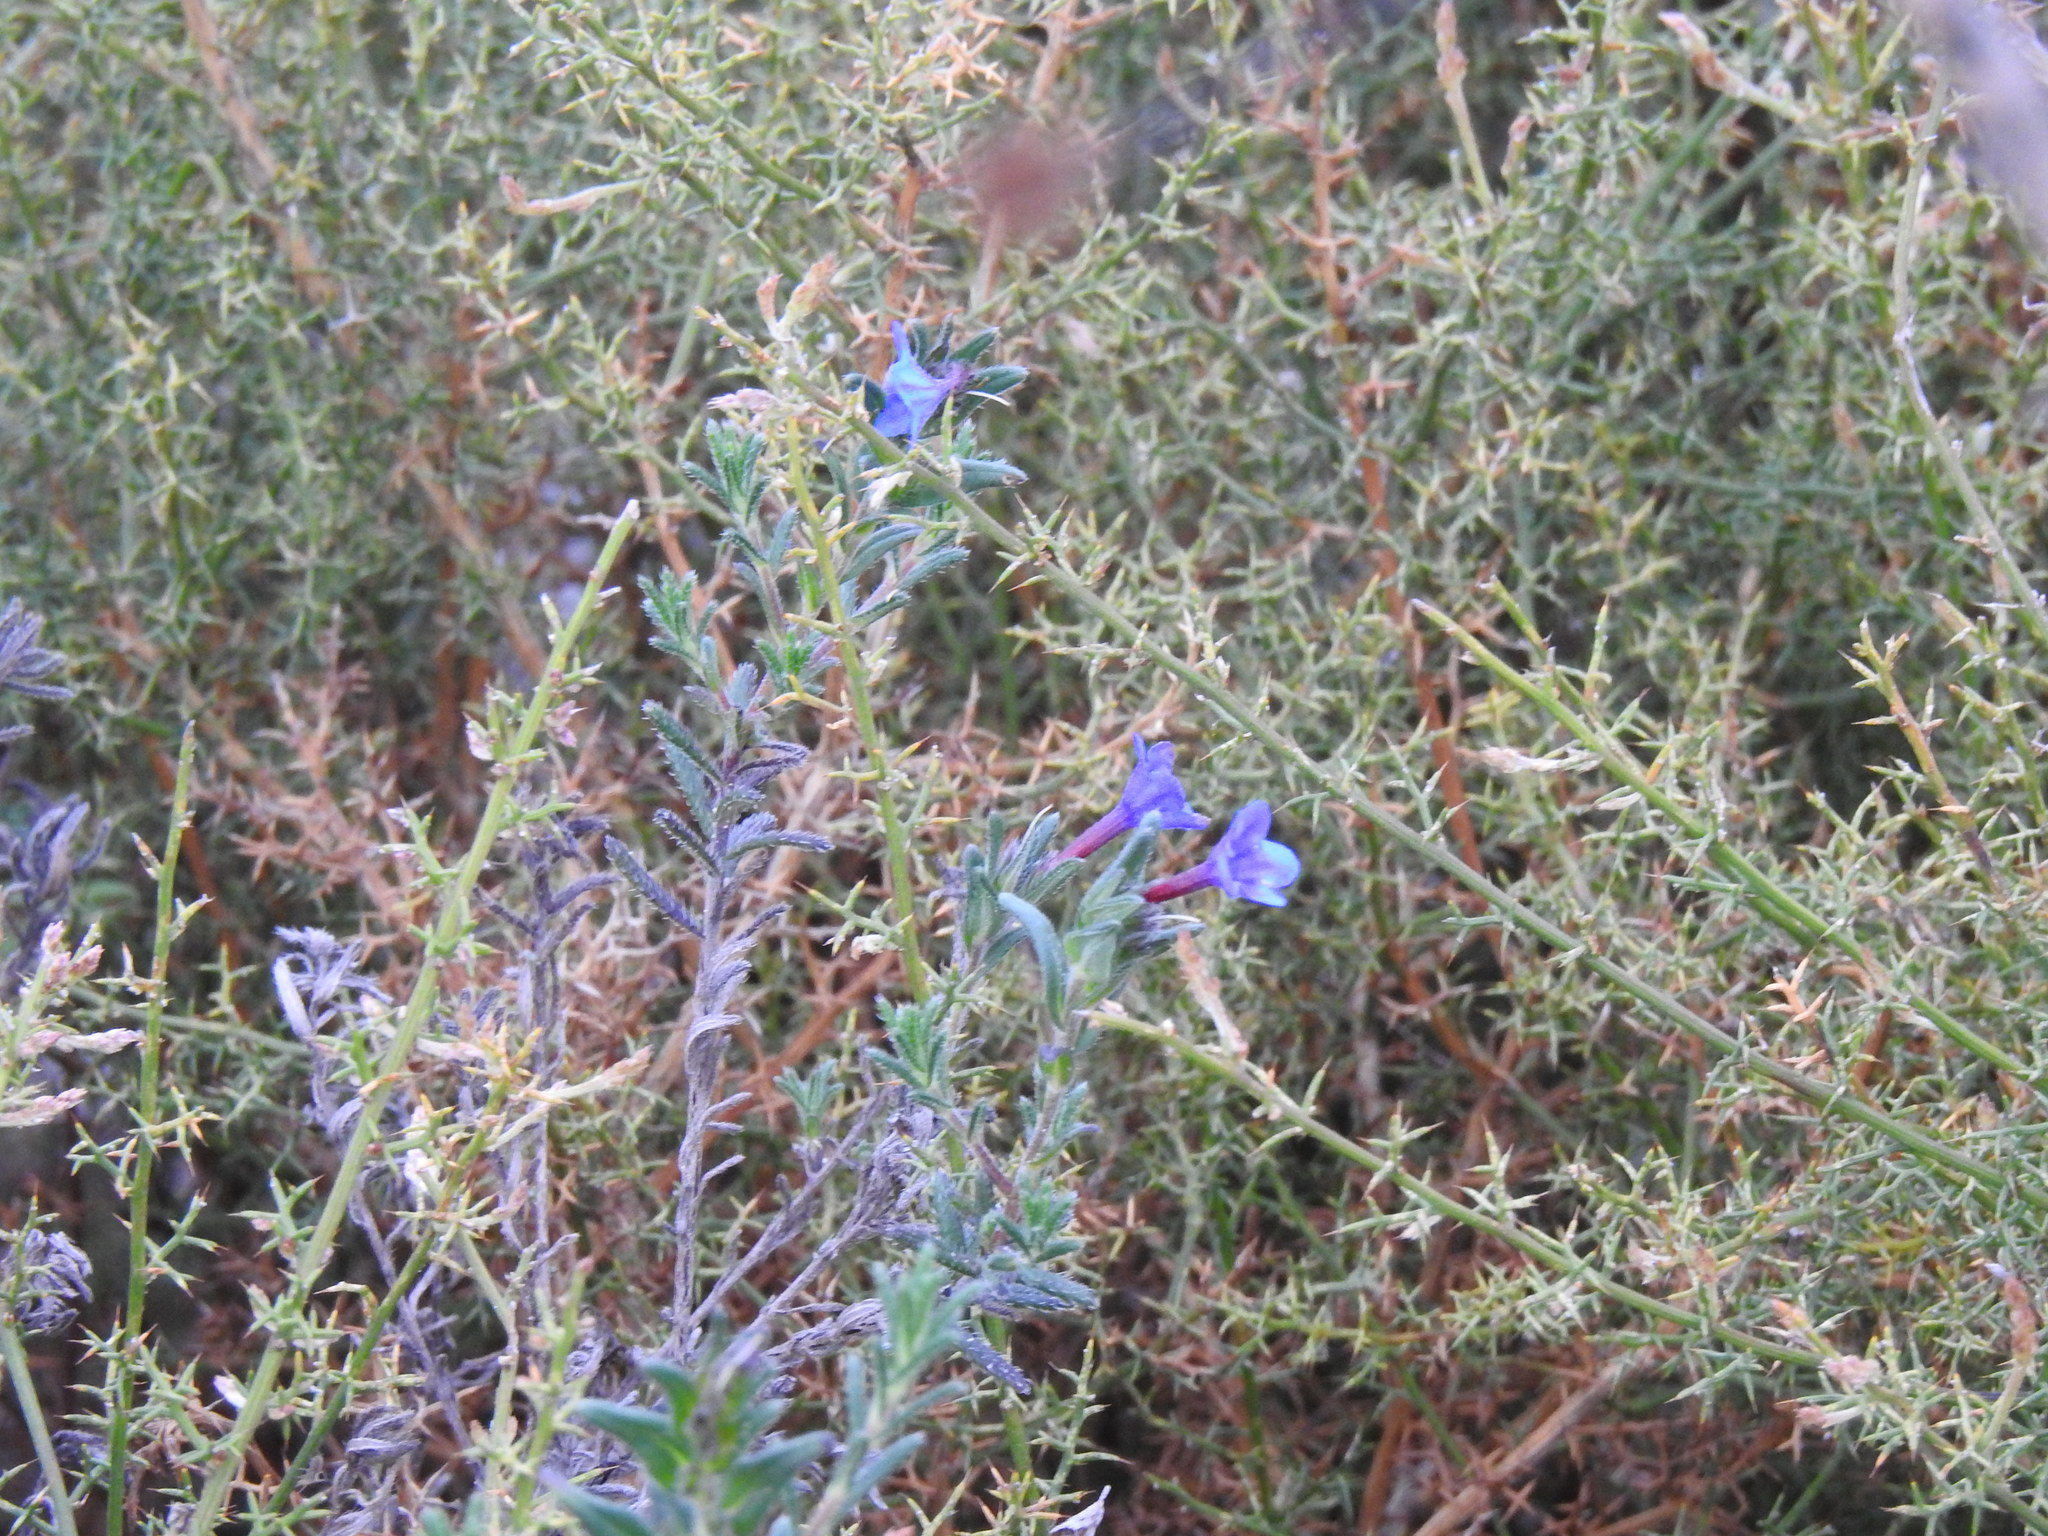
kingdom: Plantae
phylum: Tracheophyta
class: Magnoliopsida
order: Boraginales
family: Boraginaceae
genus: Glandora
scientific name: Glandora prostrata
